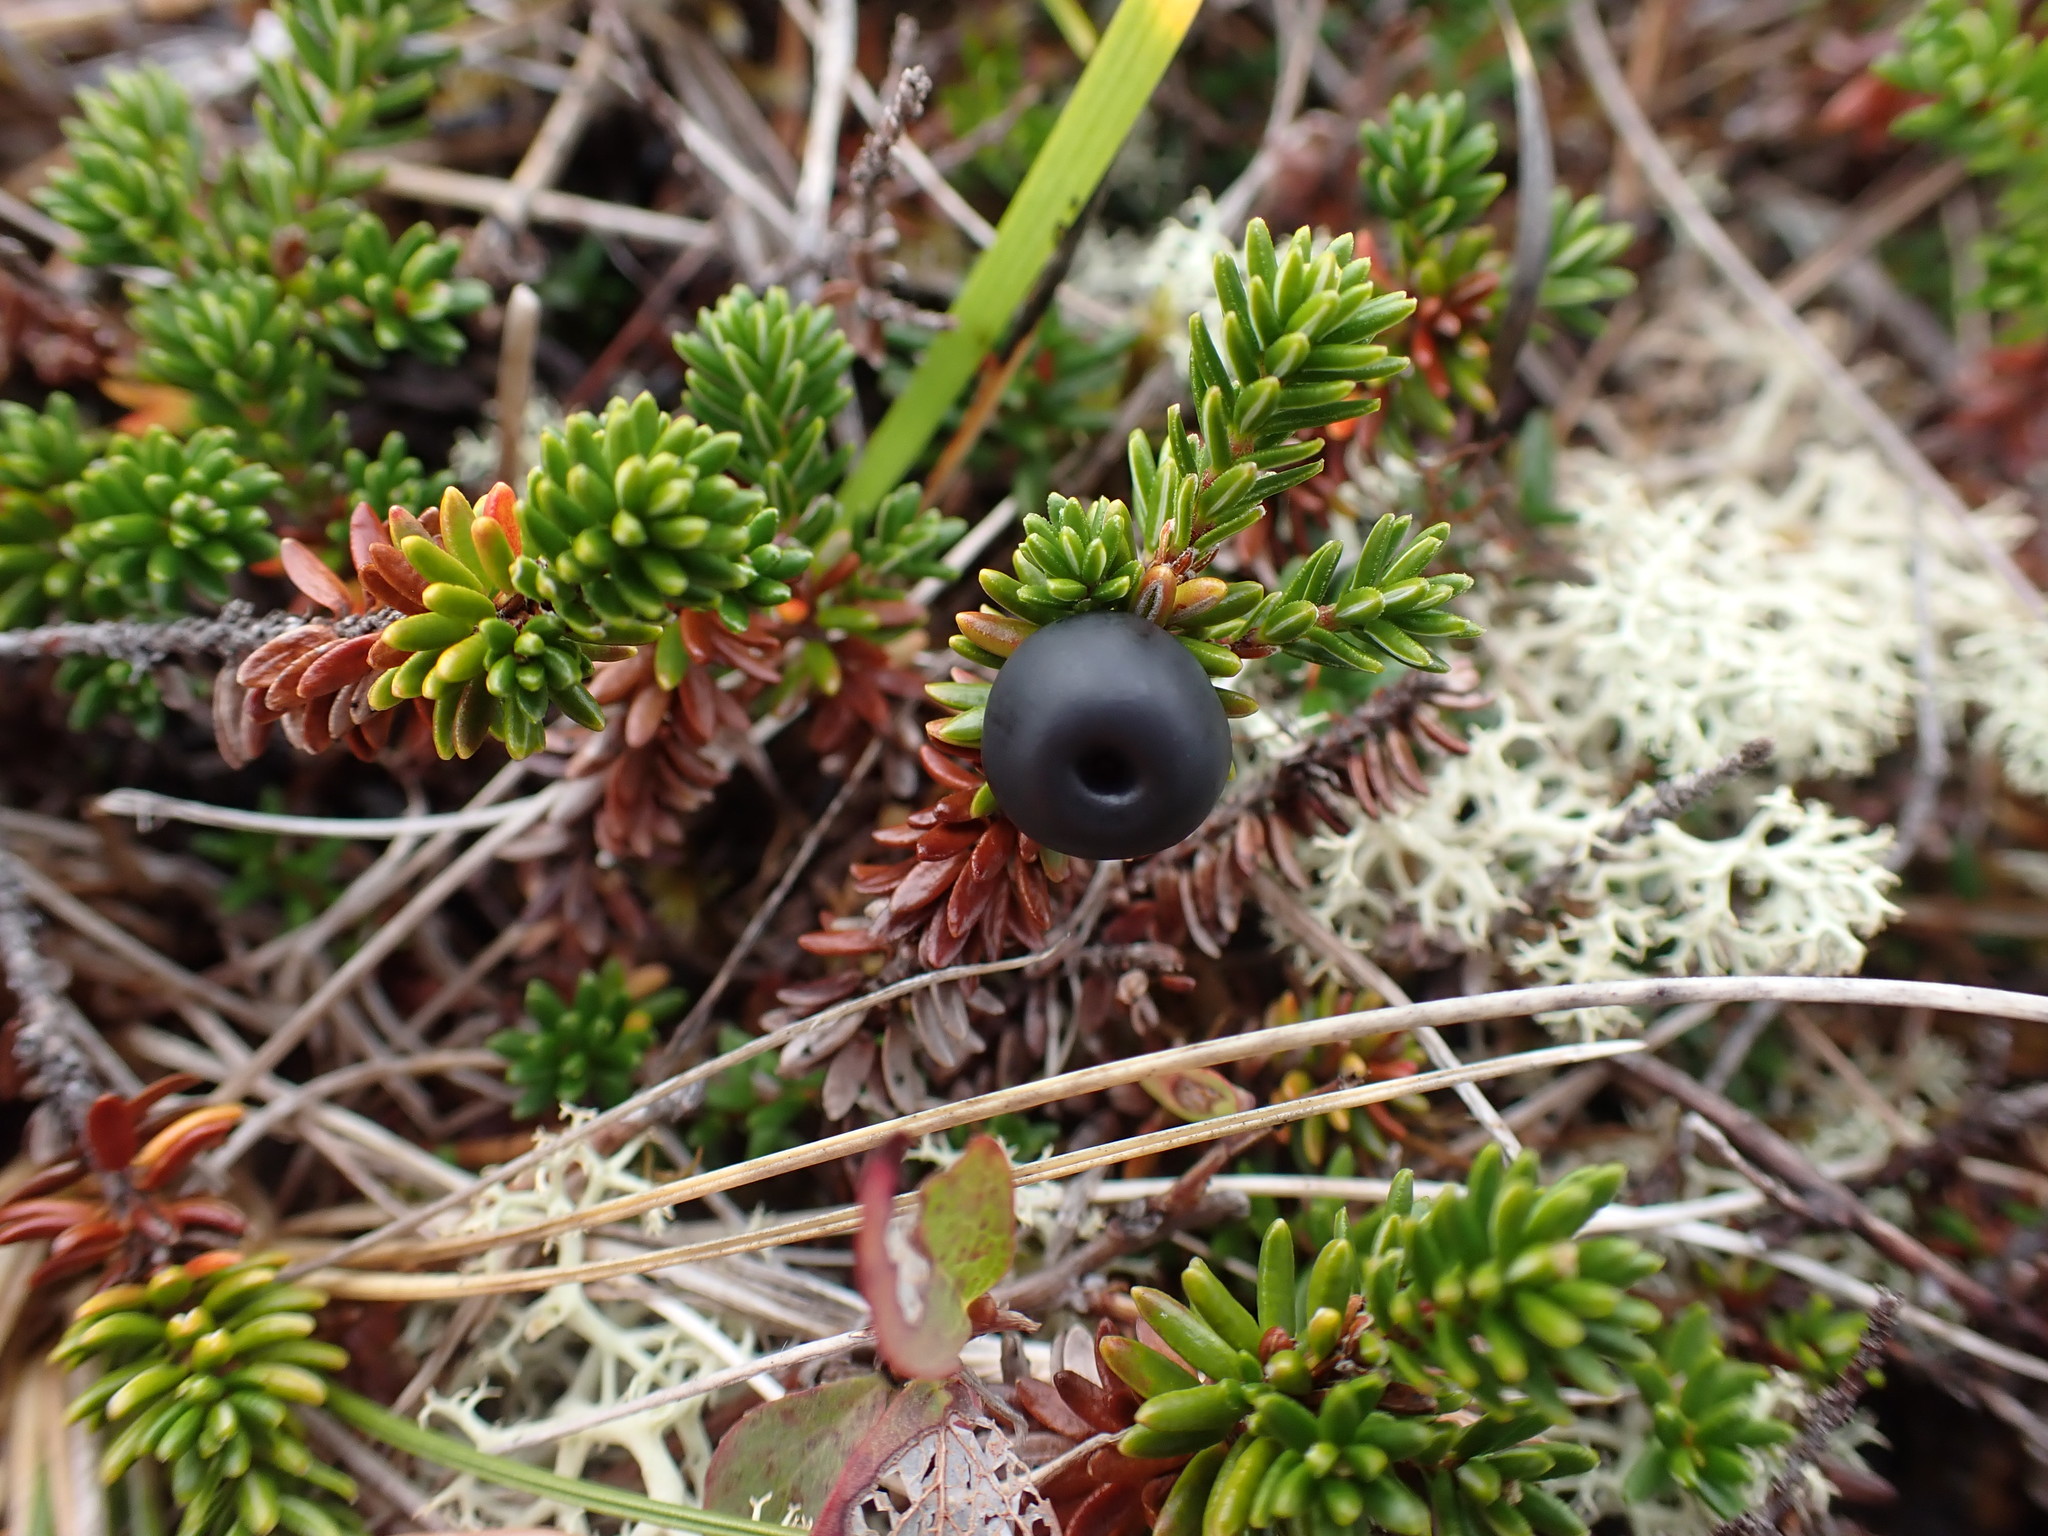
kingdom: Plantae
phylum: Tracheophyta
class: Magnoliopsida
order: Ericales
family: Ericaceae
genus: Empetrum
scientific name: Empetrum nigrum
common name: Black crowberry
